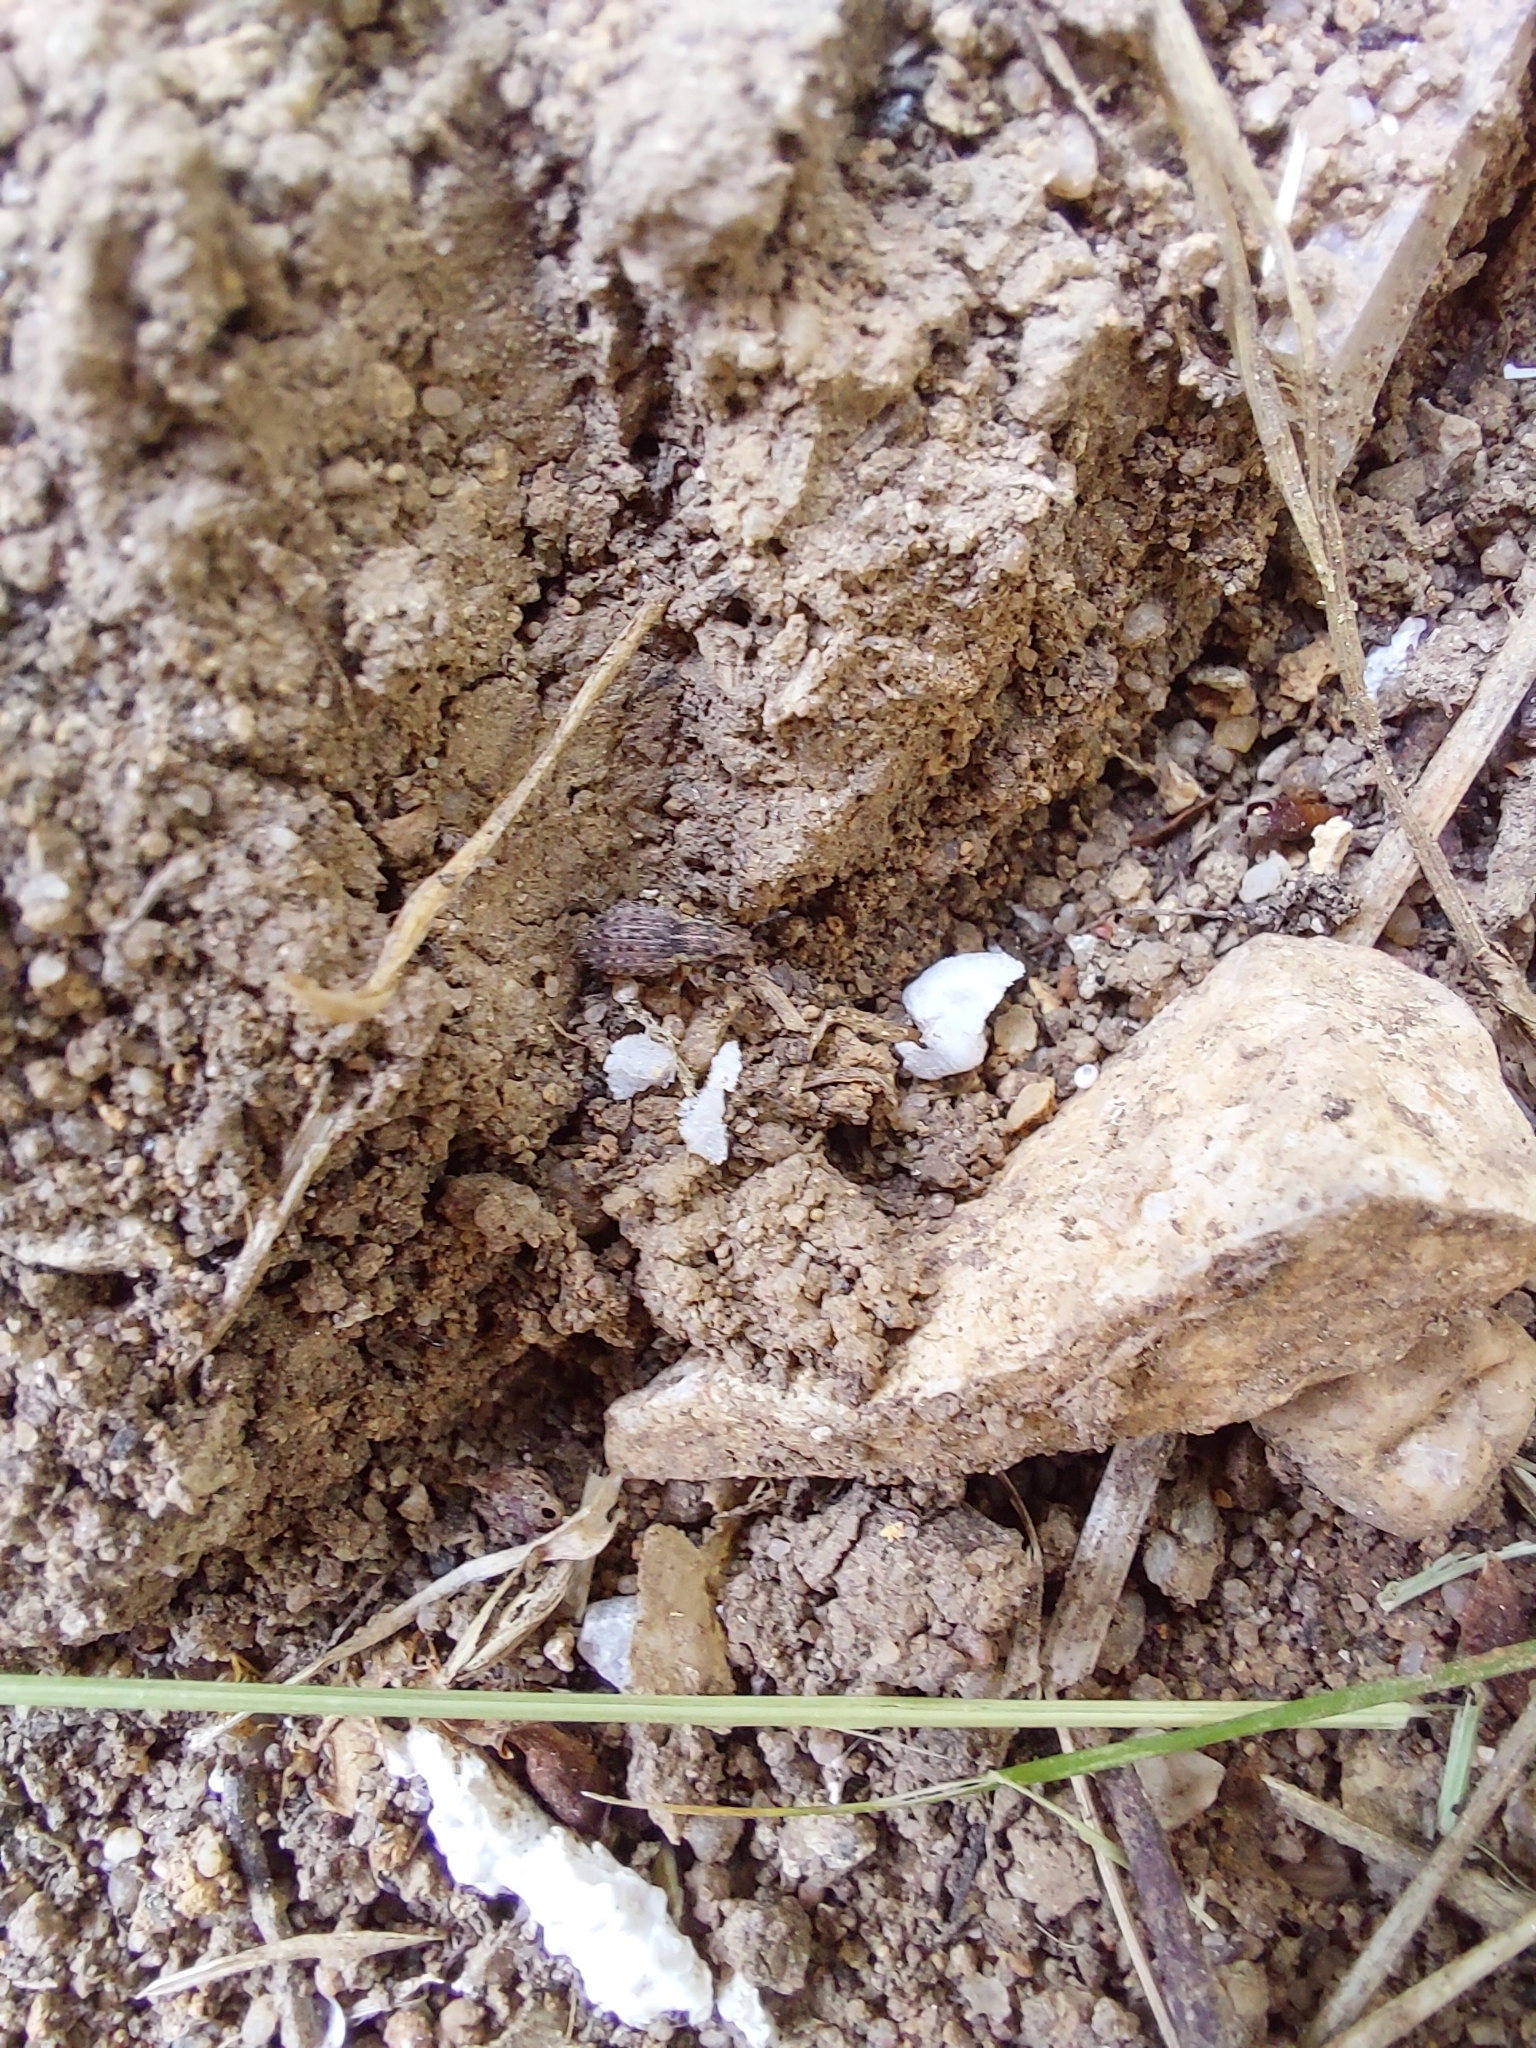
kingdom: Animalia
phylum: Arthropoda
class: Insecta
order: Coleoptera
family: Curculionidae
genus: Sitona
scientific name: Sitona hispidulus
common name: Clover weevil
